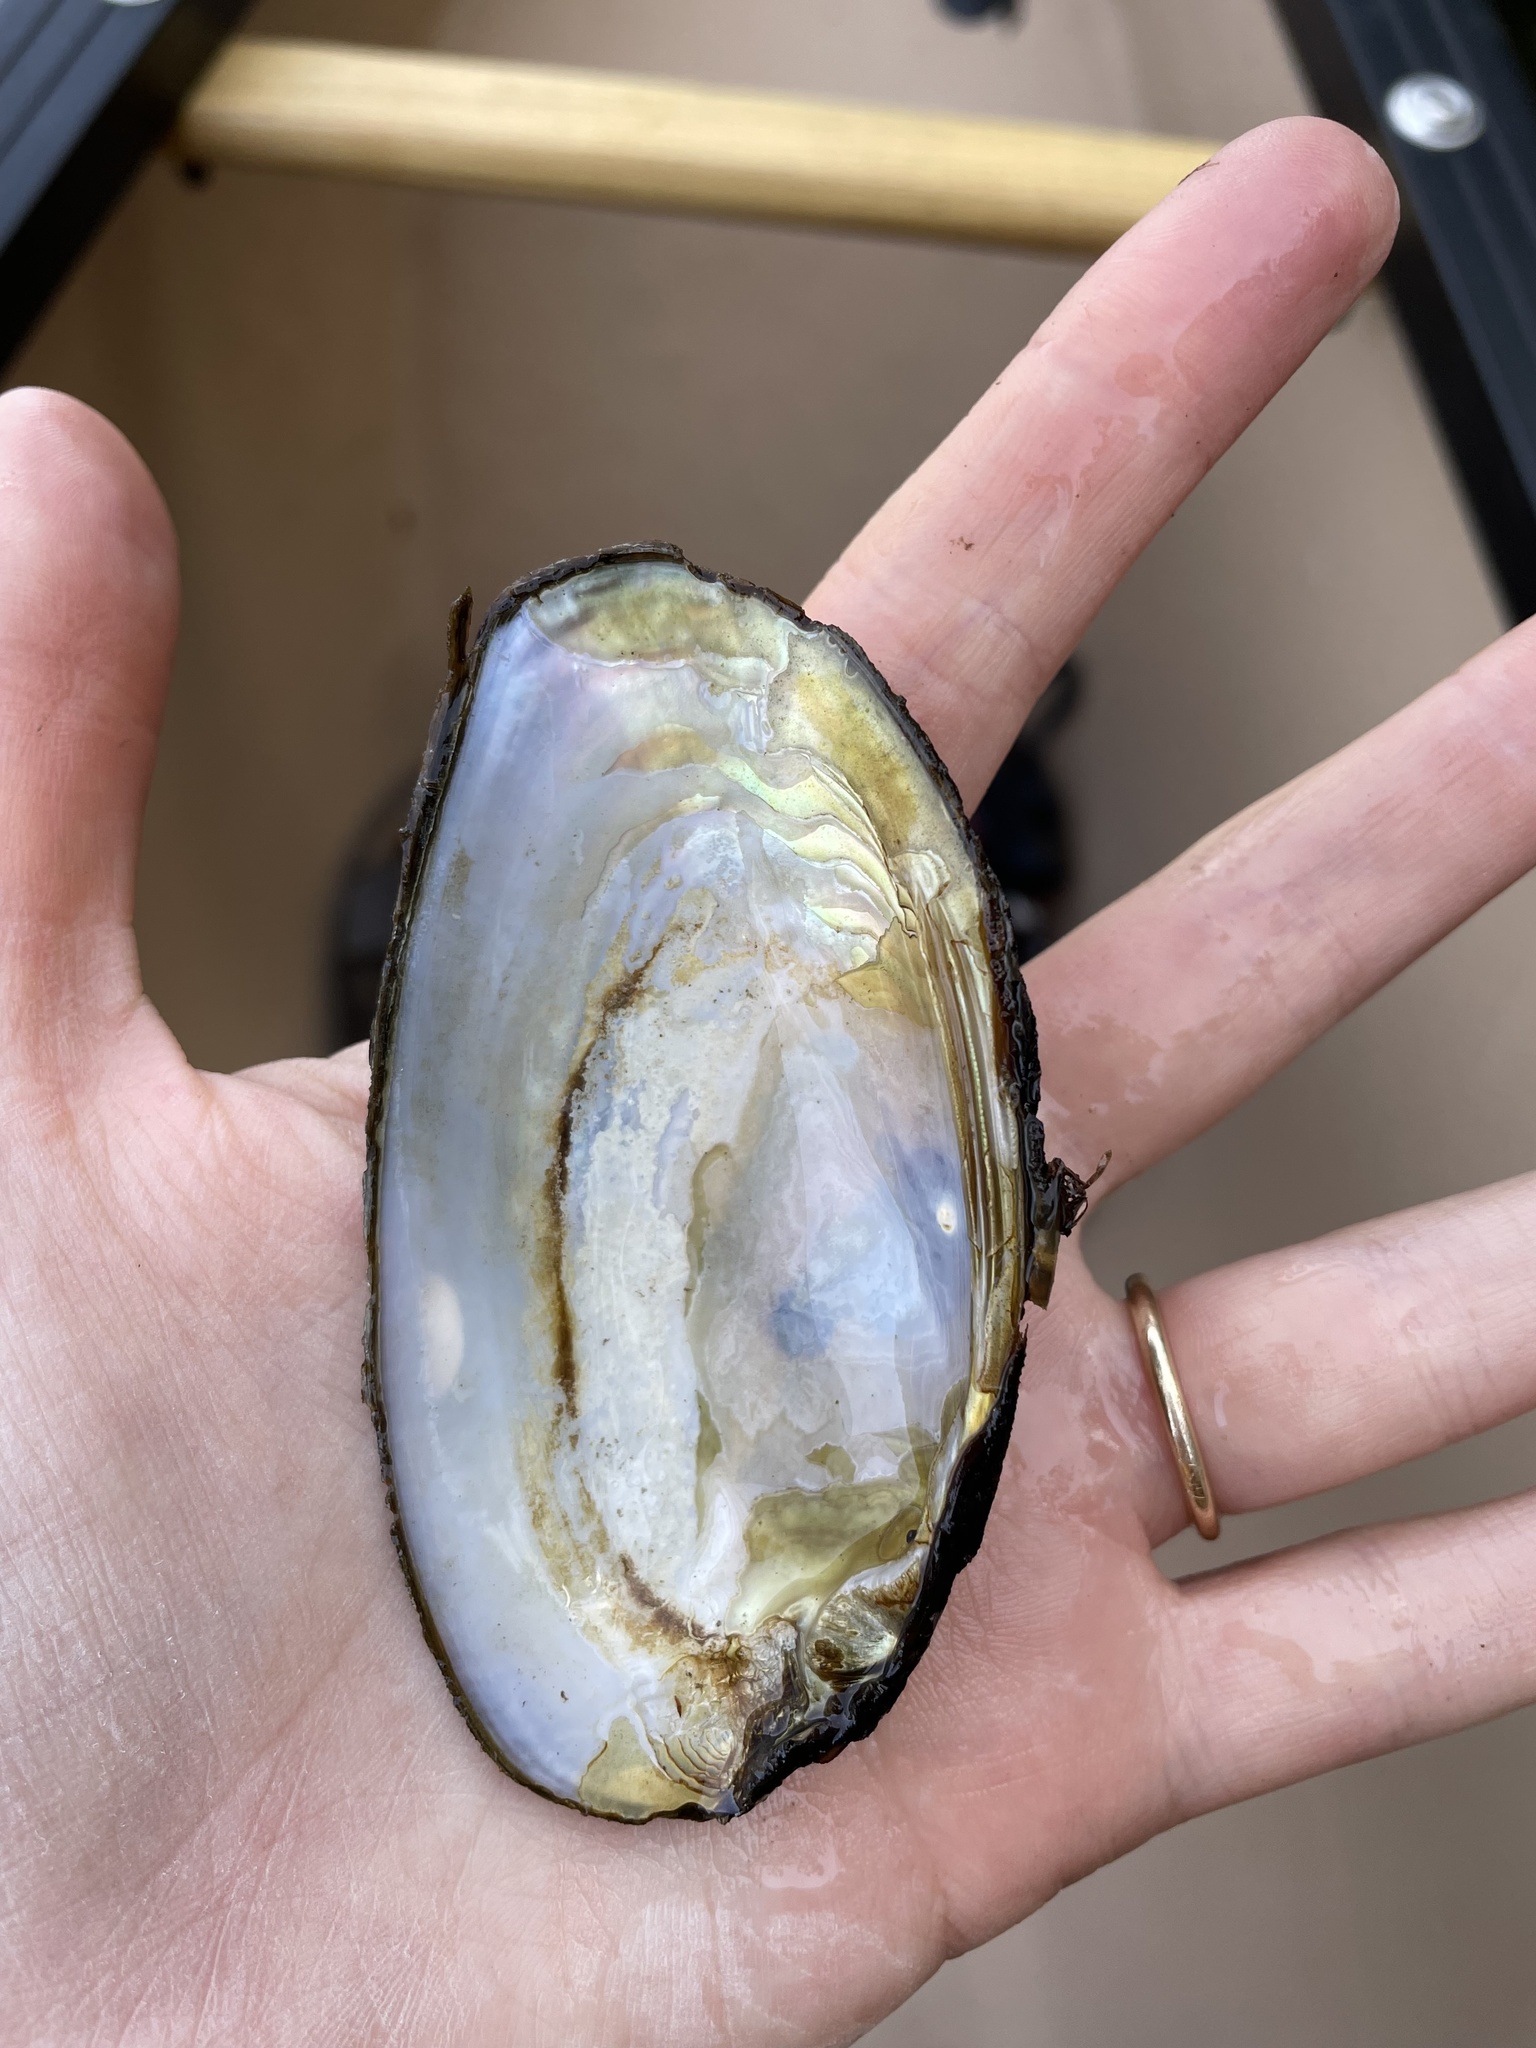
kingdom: Animalia
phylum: Mollusca
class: Bivalvia
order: Unionida
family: Unionidae
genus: Elliptio
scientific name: Elliptio complanata
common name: Eastern elliptio
